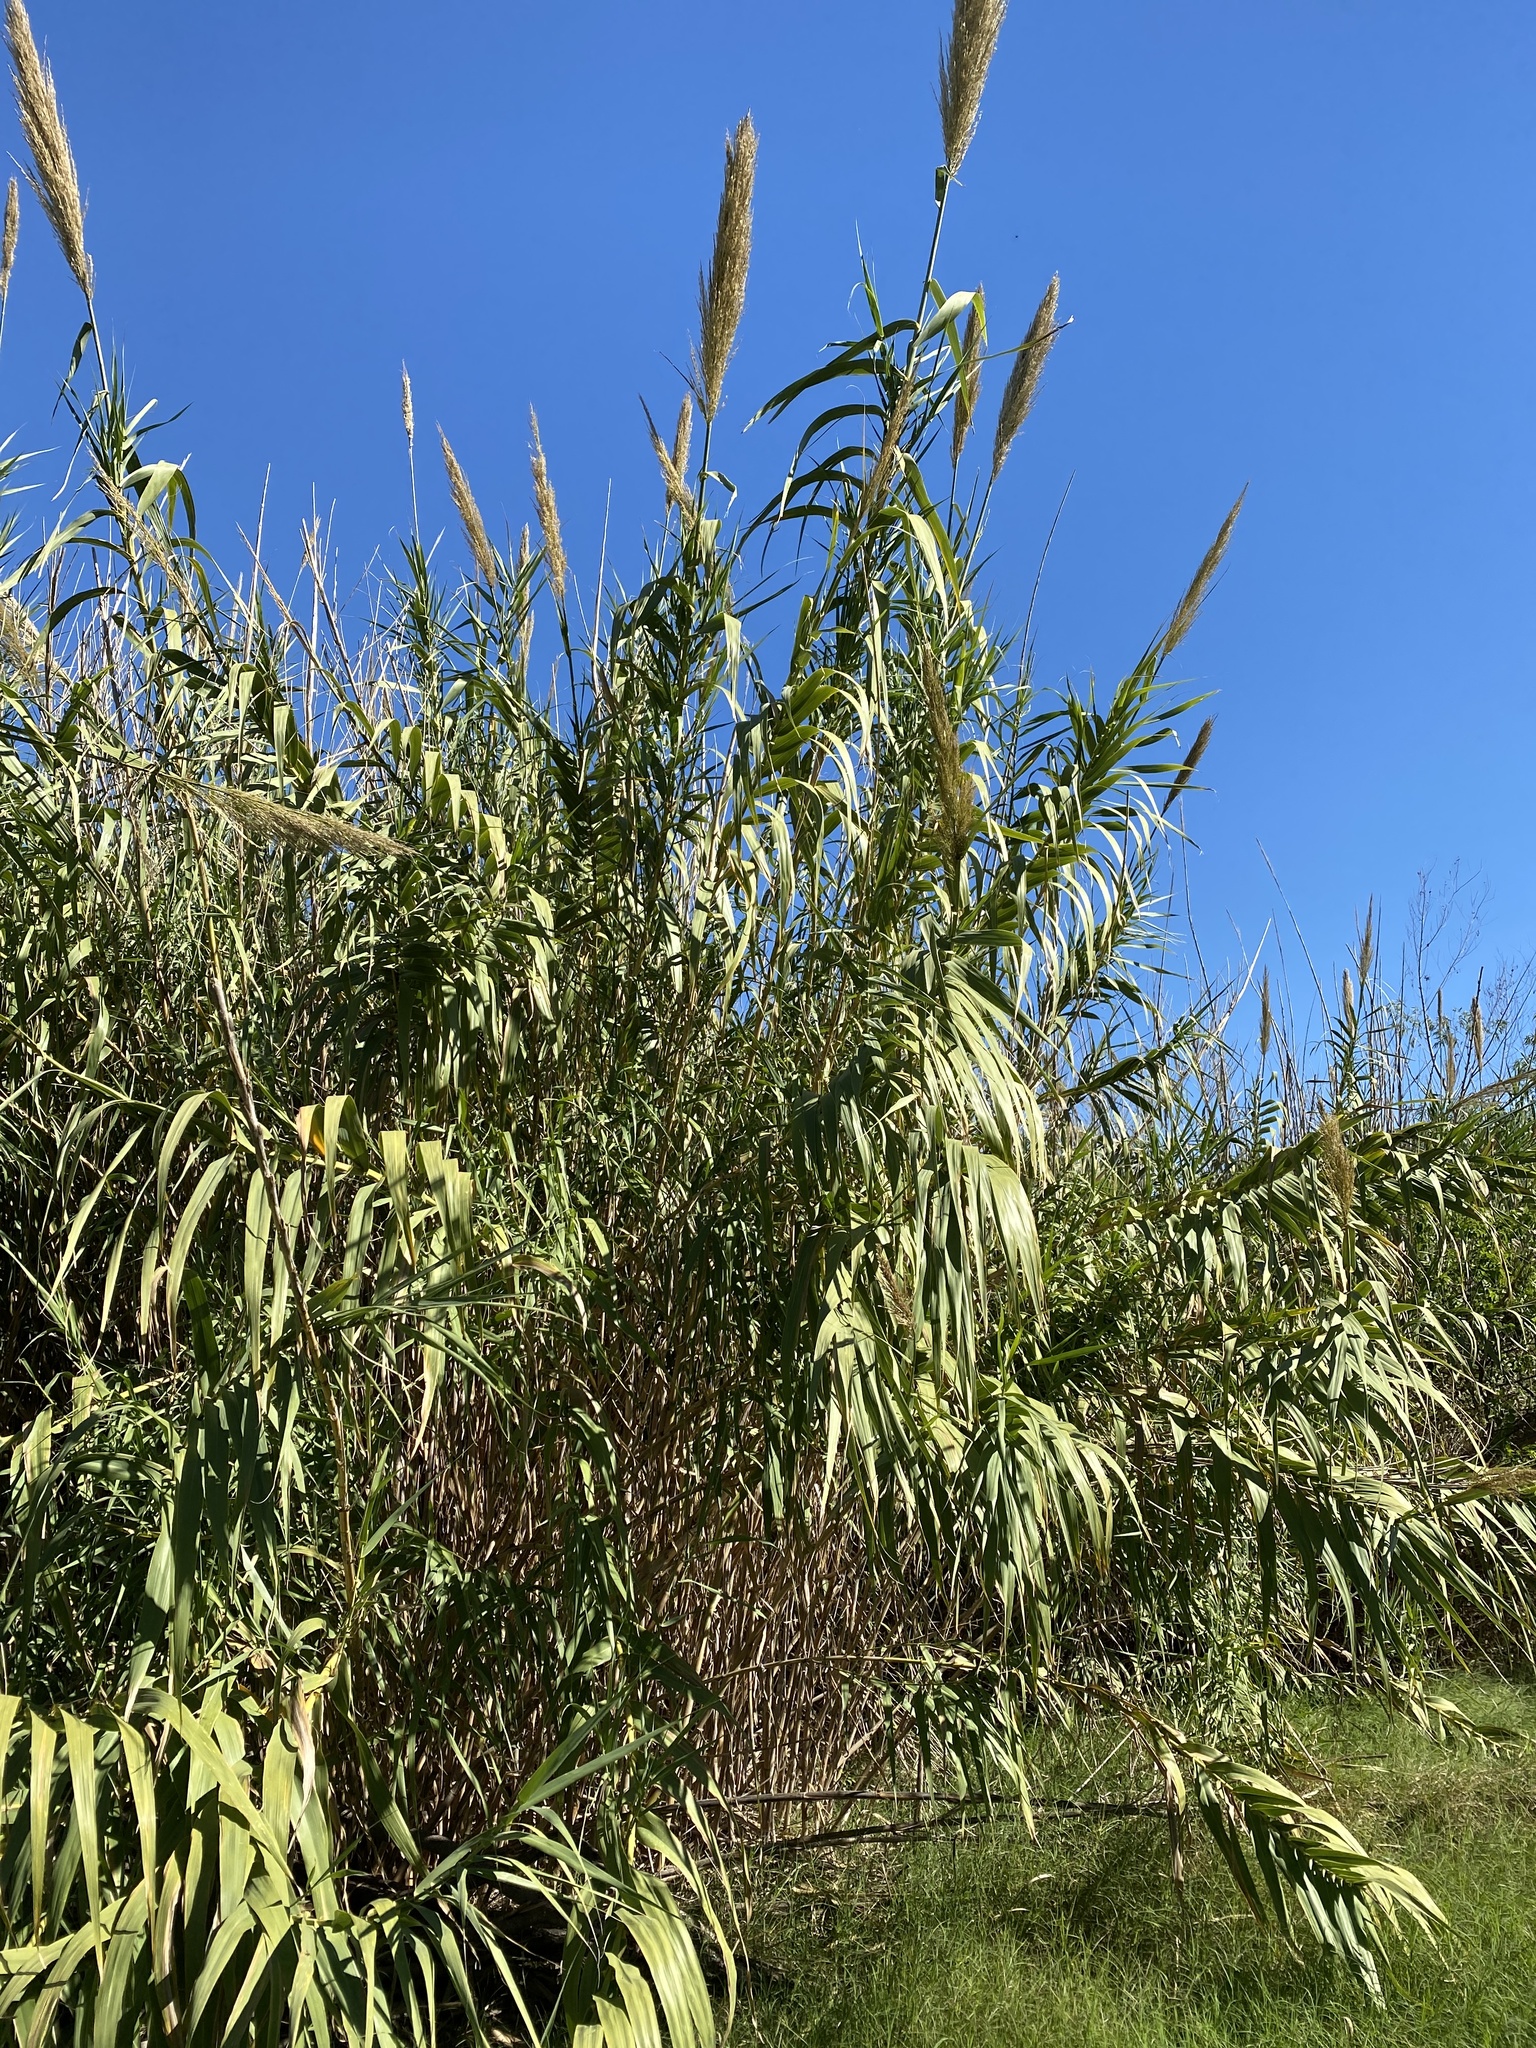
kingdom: Plantae
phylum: Tracheophyta
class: Liliopsida
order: Poales
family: Poaceae
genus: Arundo
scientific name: Arundo donax
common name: Giant reed
